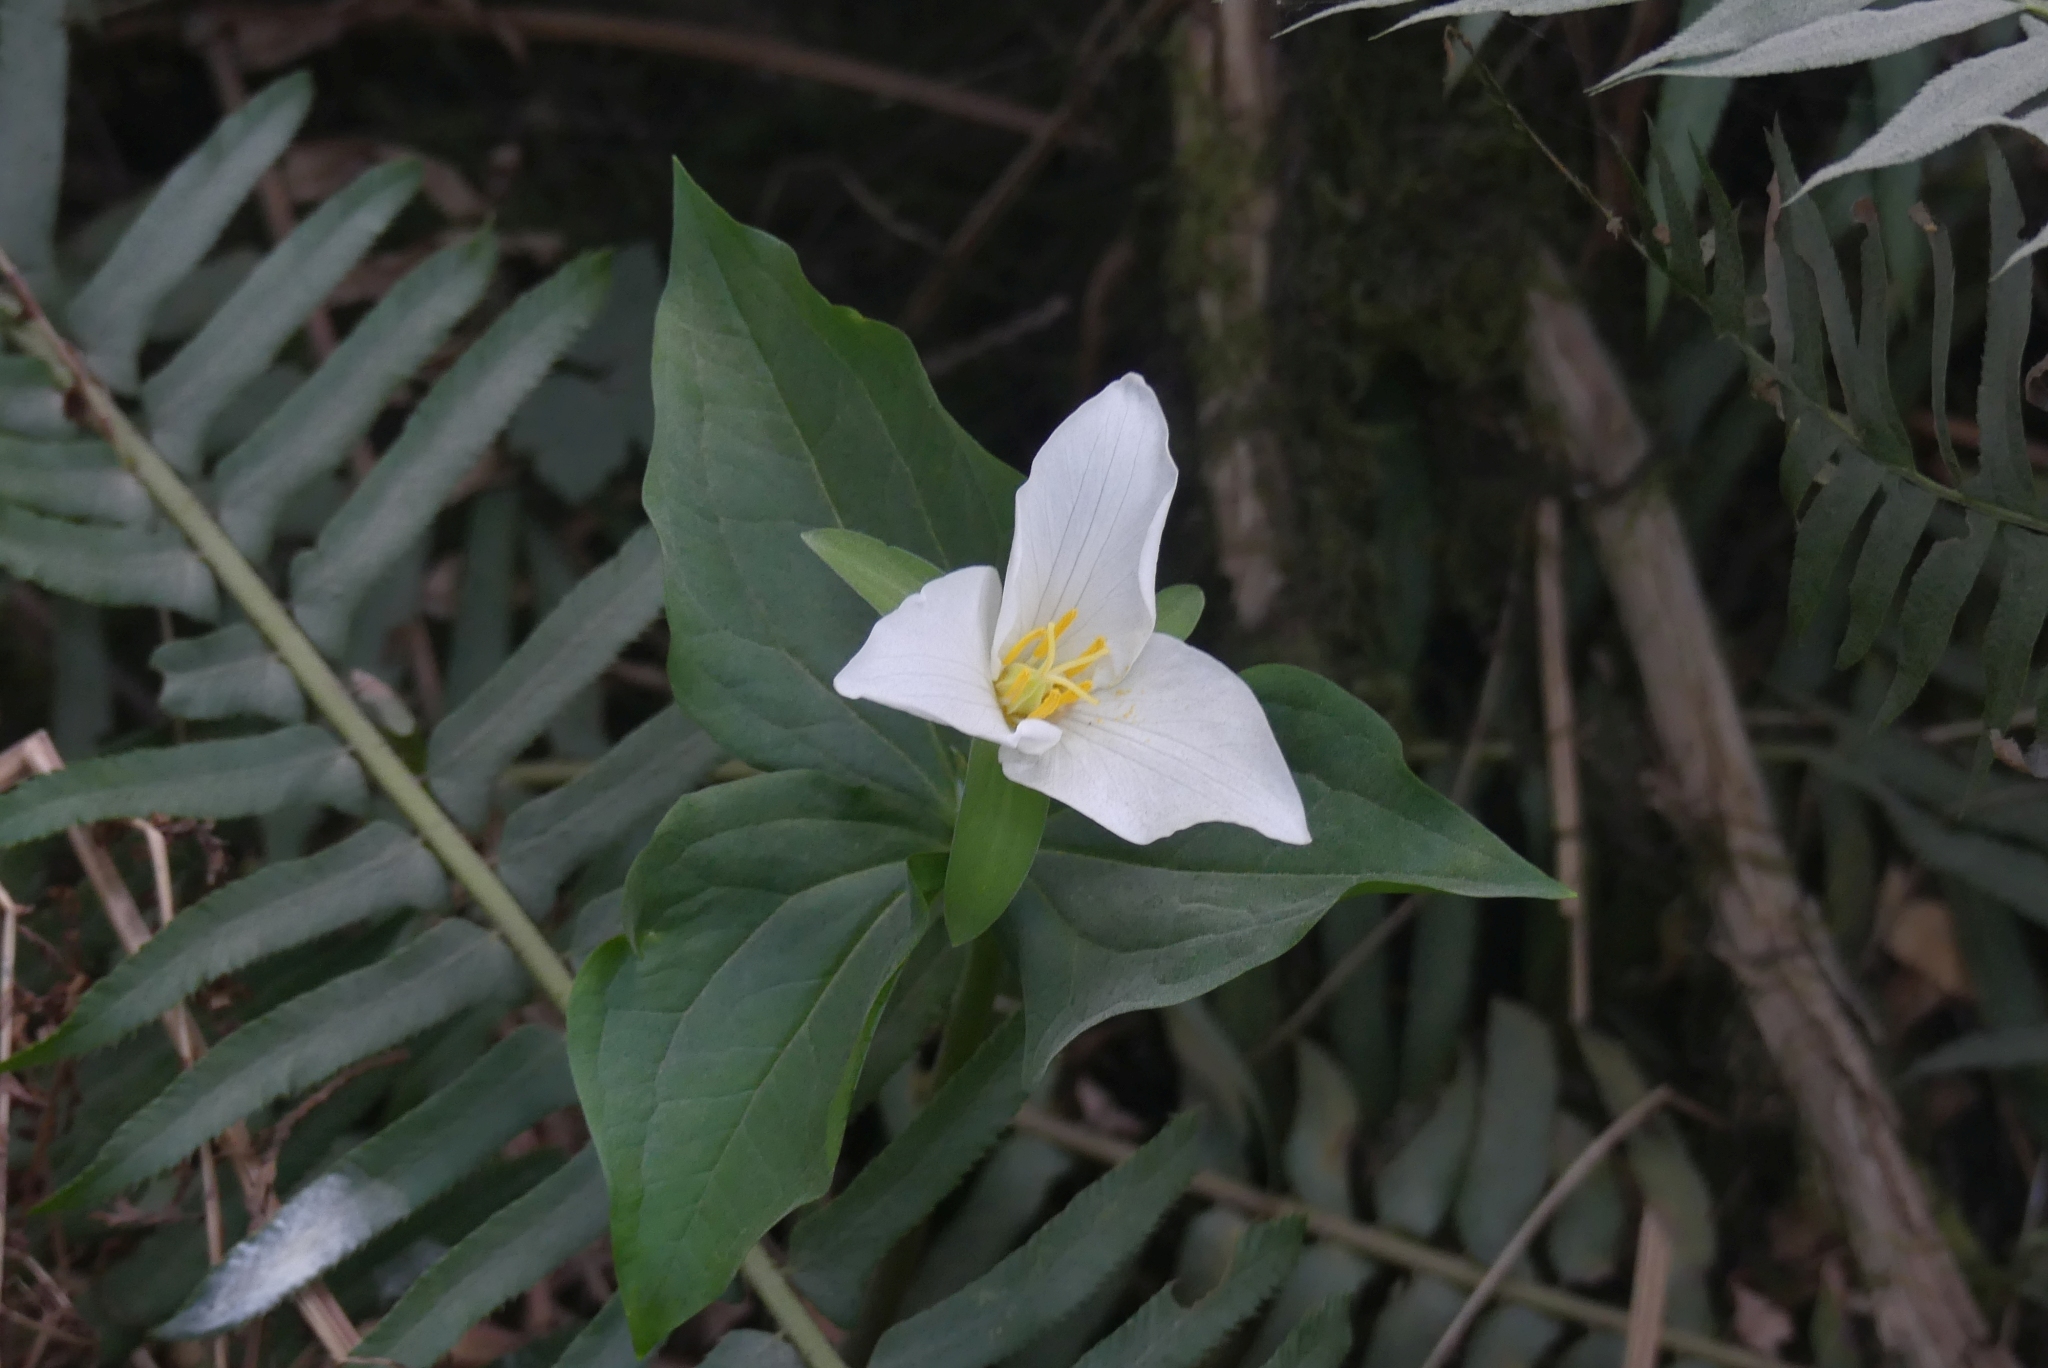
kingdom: Plantae
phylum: Tracheophyta
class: Liliopsida
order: Liliales
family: Melanthiaceae
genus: Trillium
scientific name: Trillium ovatum
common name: Pacific trillium
